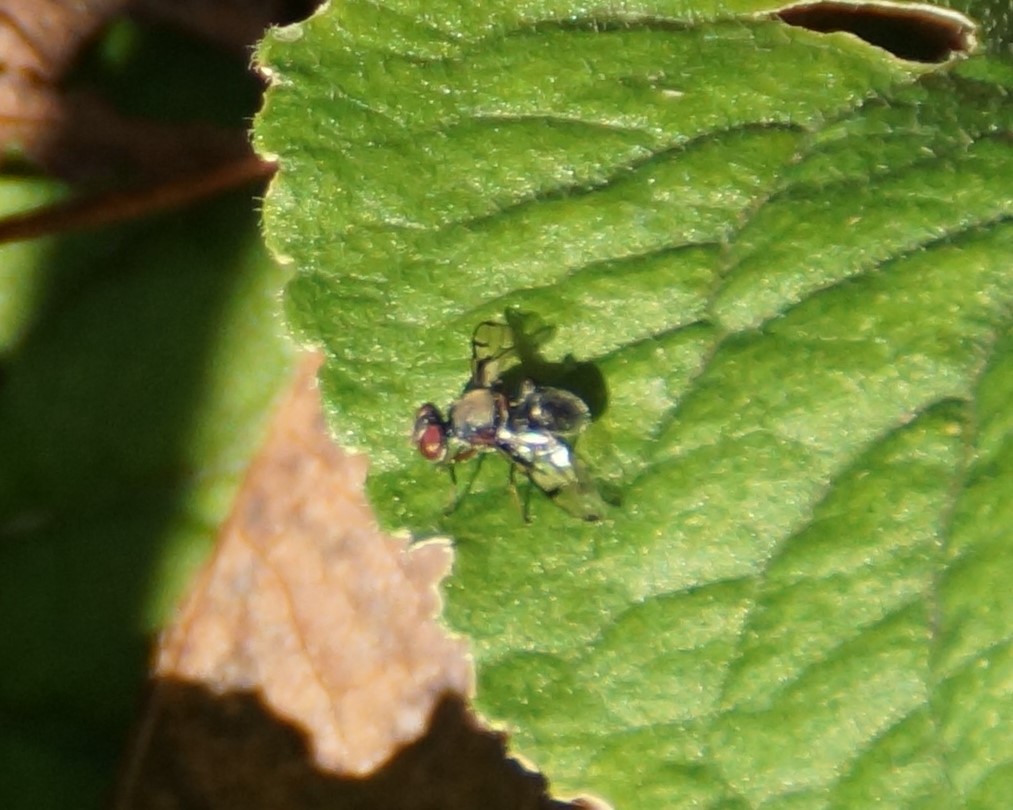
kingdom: Animalia
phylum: Arthropoda
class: Insecta
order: Diptera
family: Platystomatidae
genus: Pogonortalis
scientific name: Pogonortalis doclea
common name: Boatman fly
